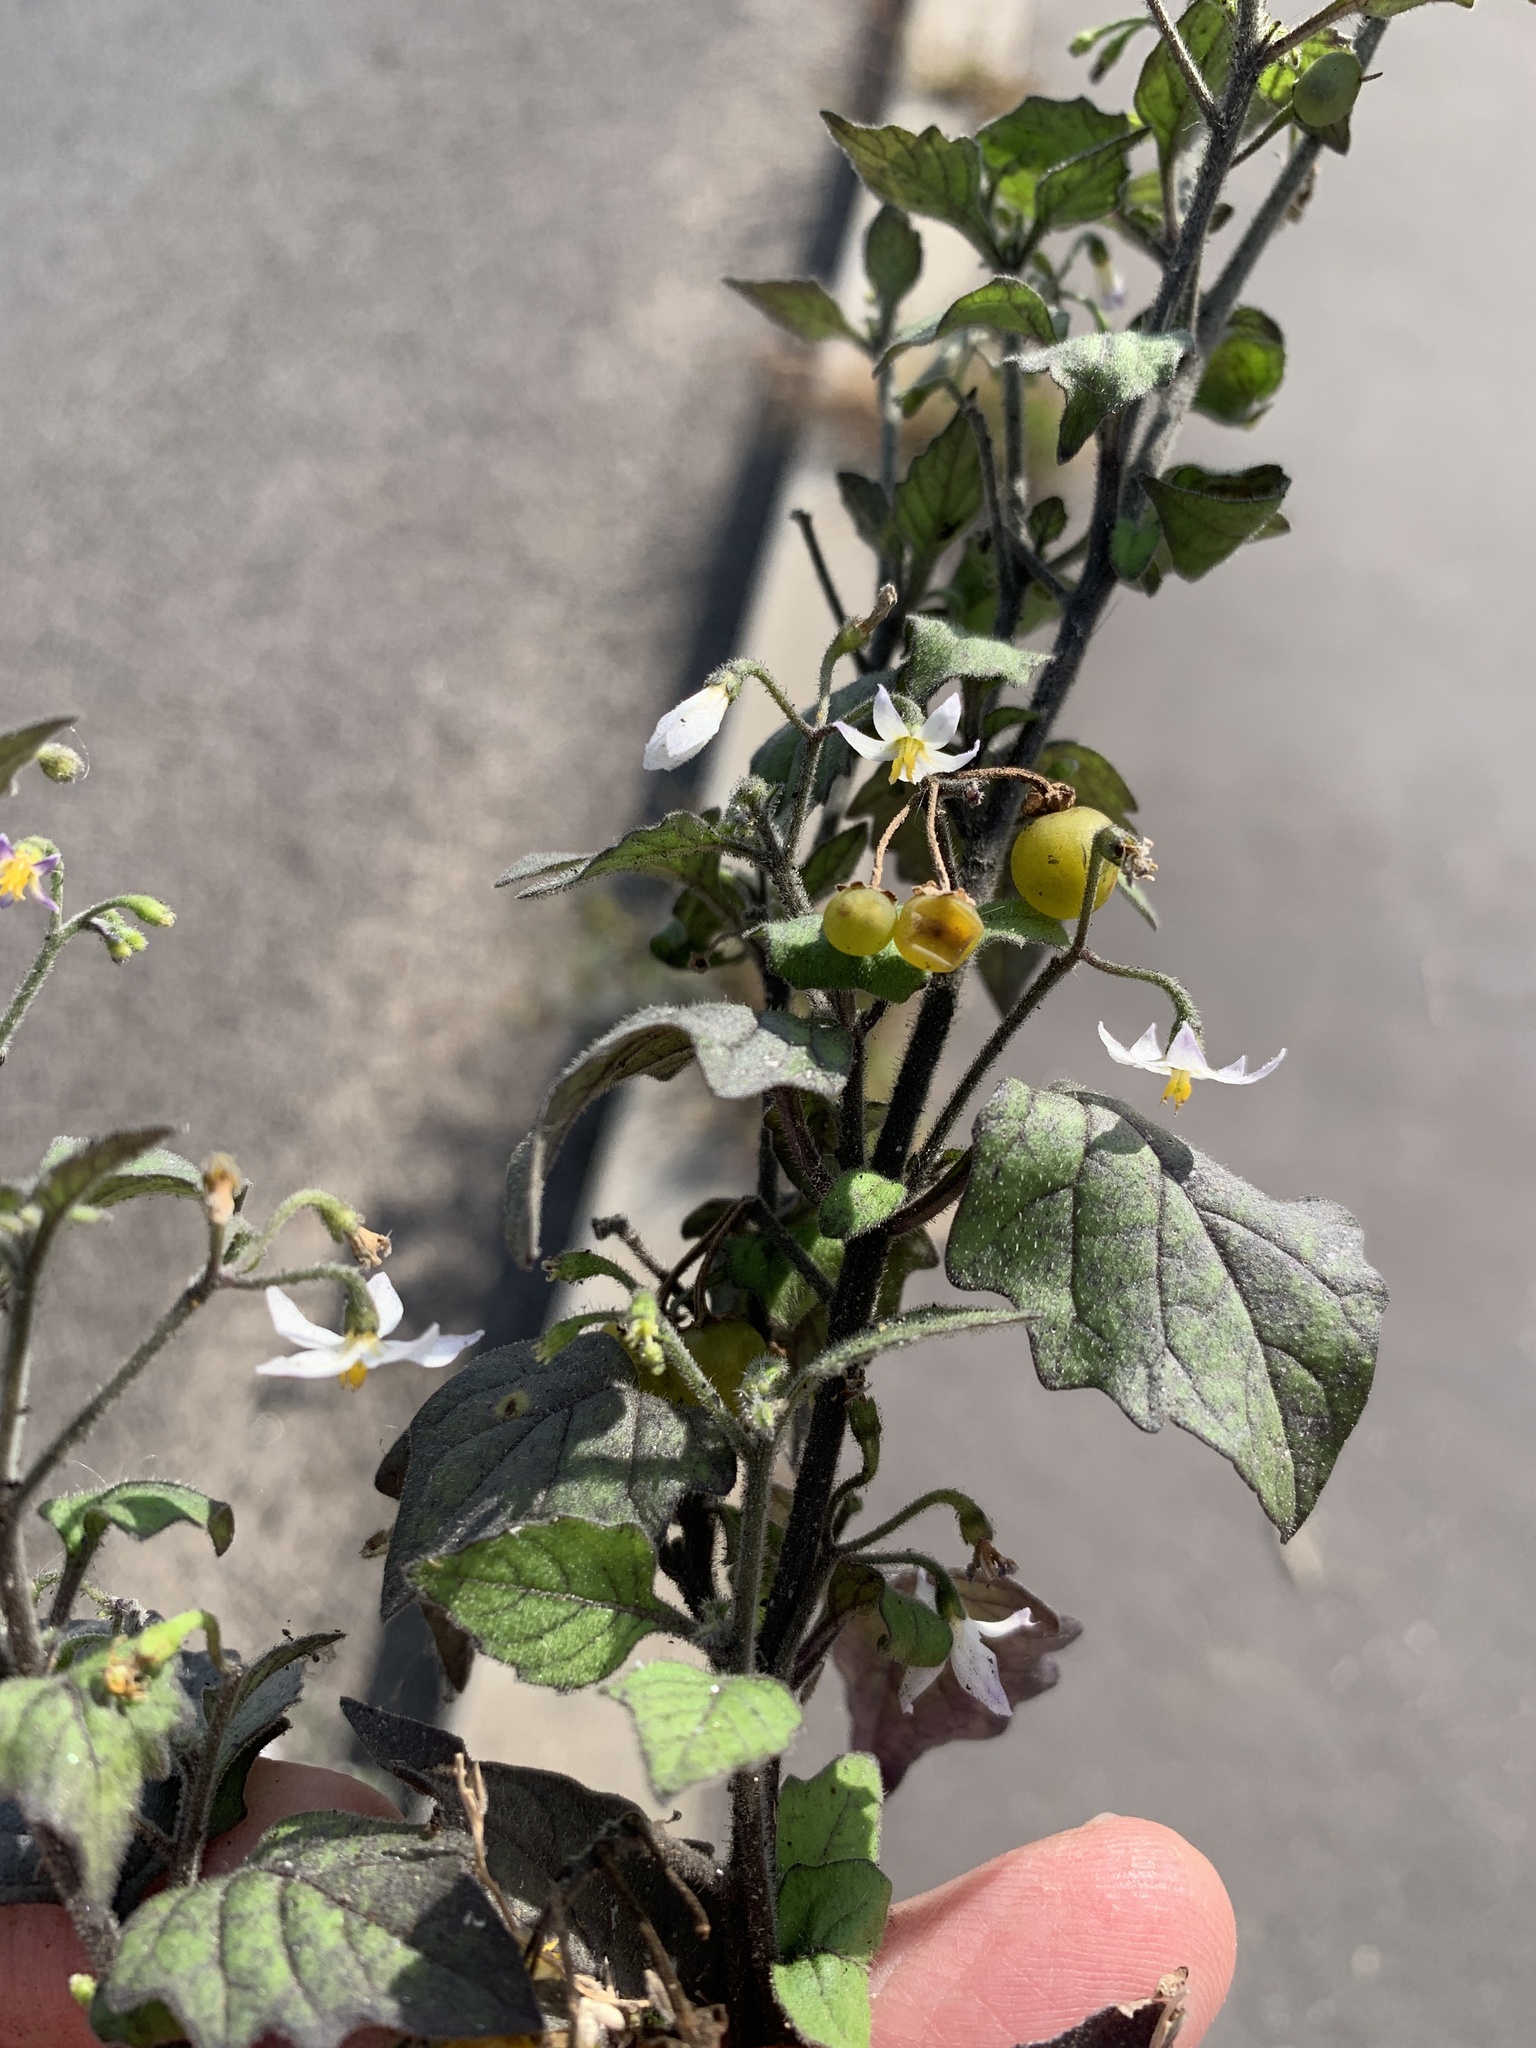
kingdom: Plantae
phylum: Tracheophyta
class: Magnoliopsida
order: Solanales
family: Solanaceae
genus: Solanum
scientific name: Solanum nigrum
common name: Black nightshade
